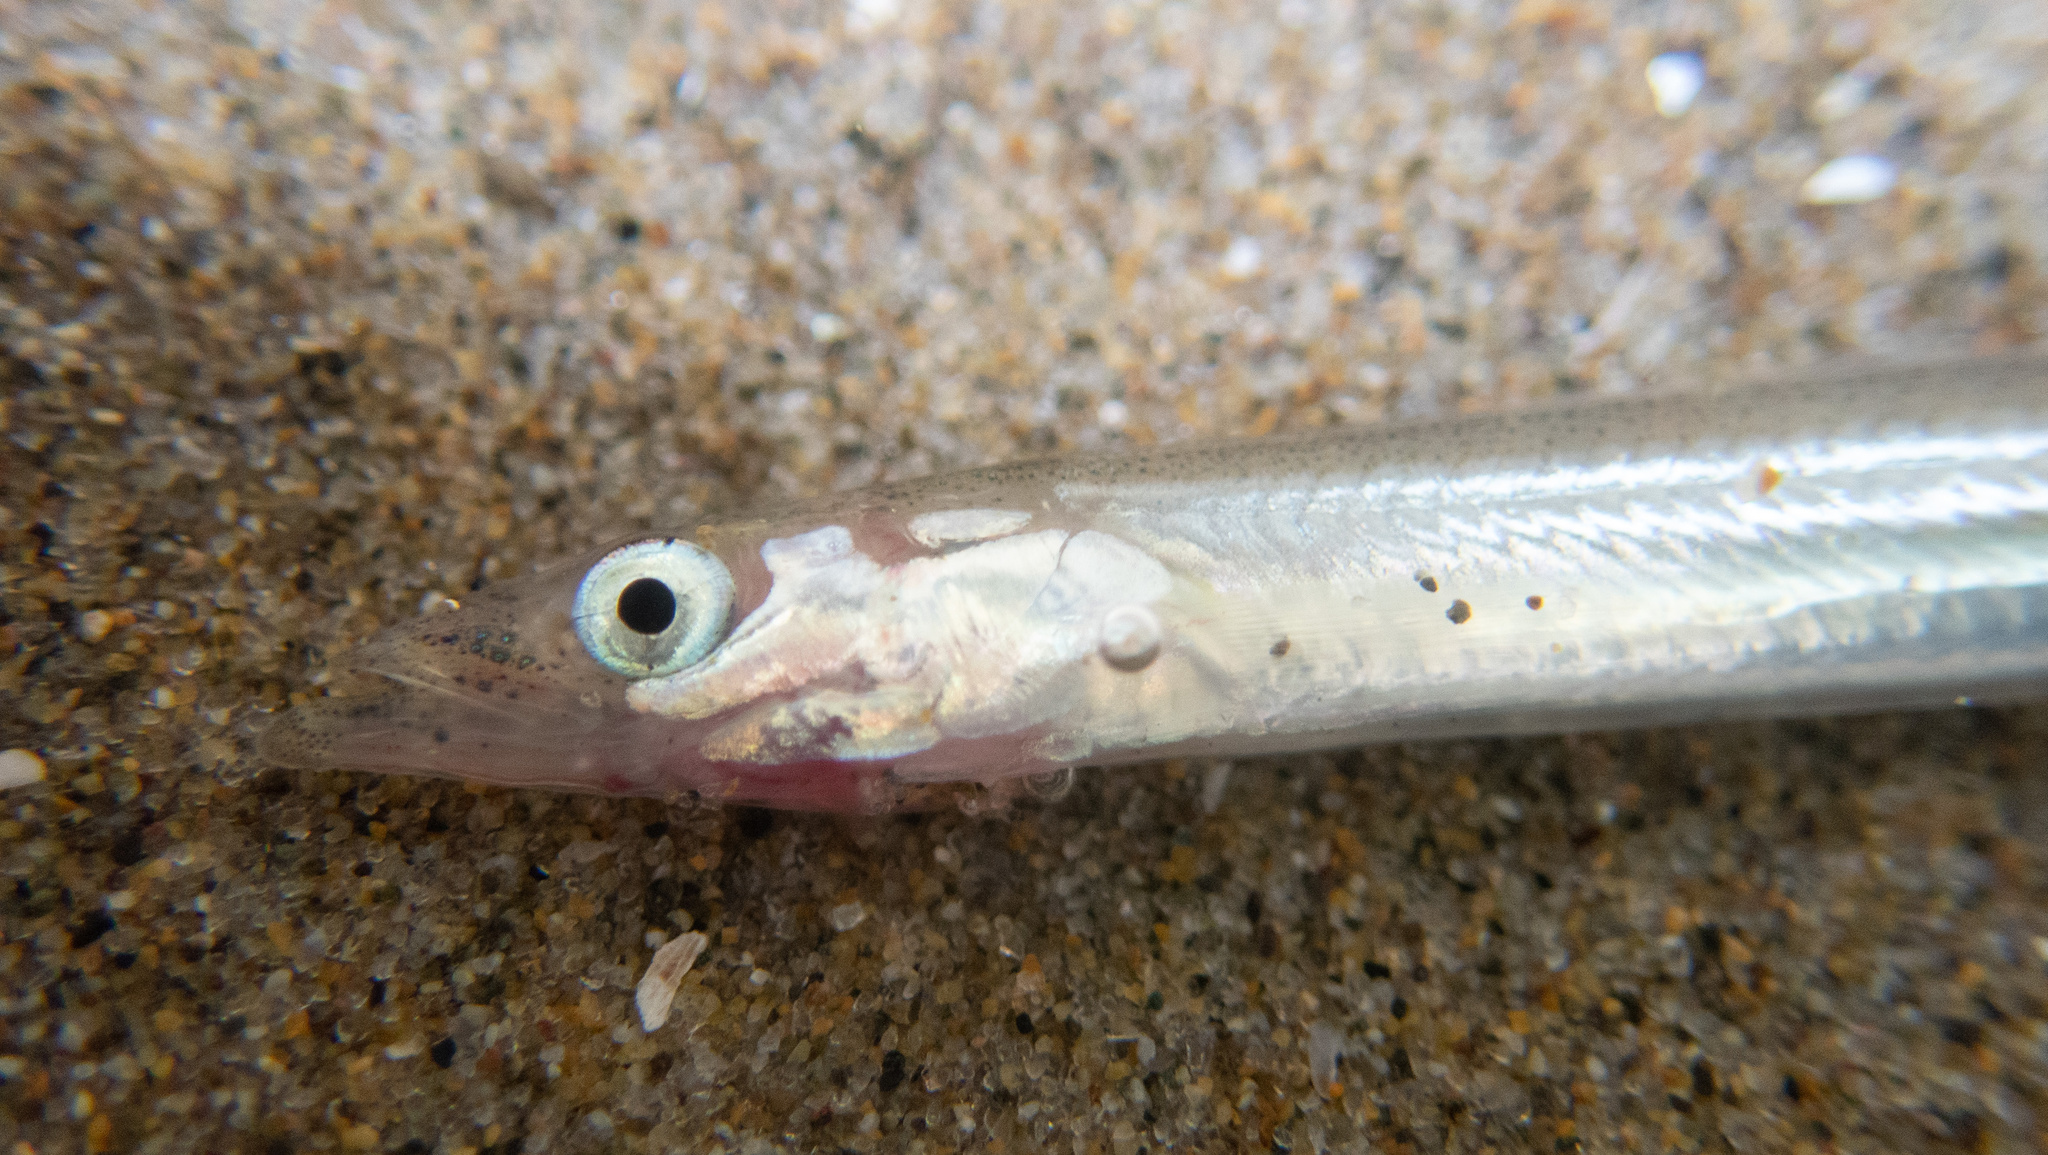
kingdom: Animalia
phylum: Chordata
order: Perciformes
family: Ammodytidae
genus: Ammodytes
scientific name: Ammodytes personatus
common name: Japanese sand lance
